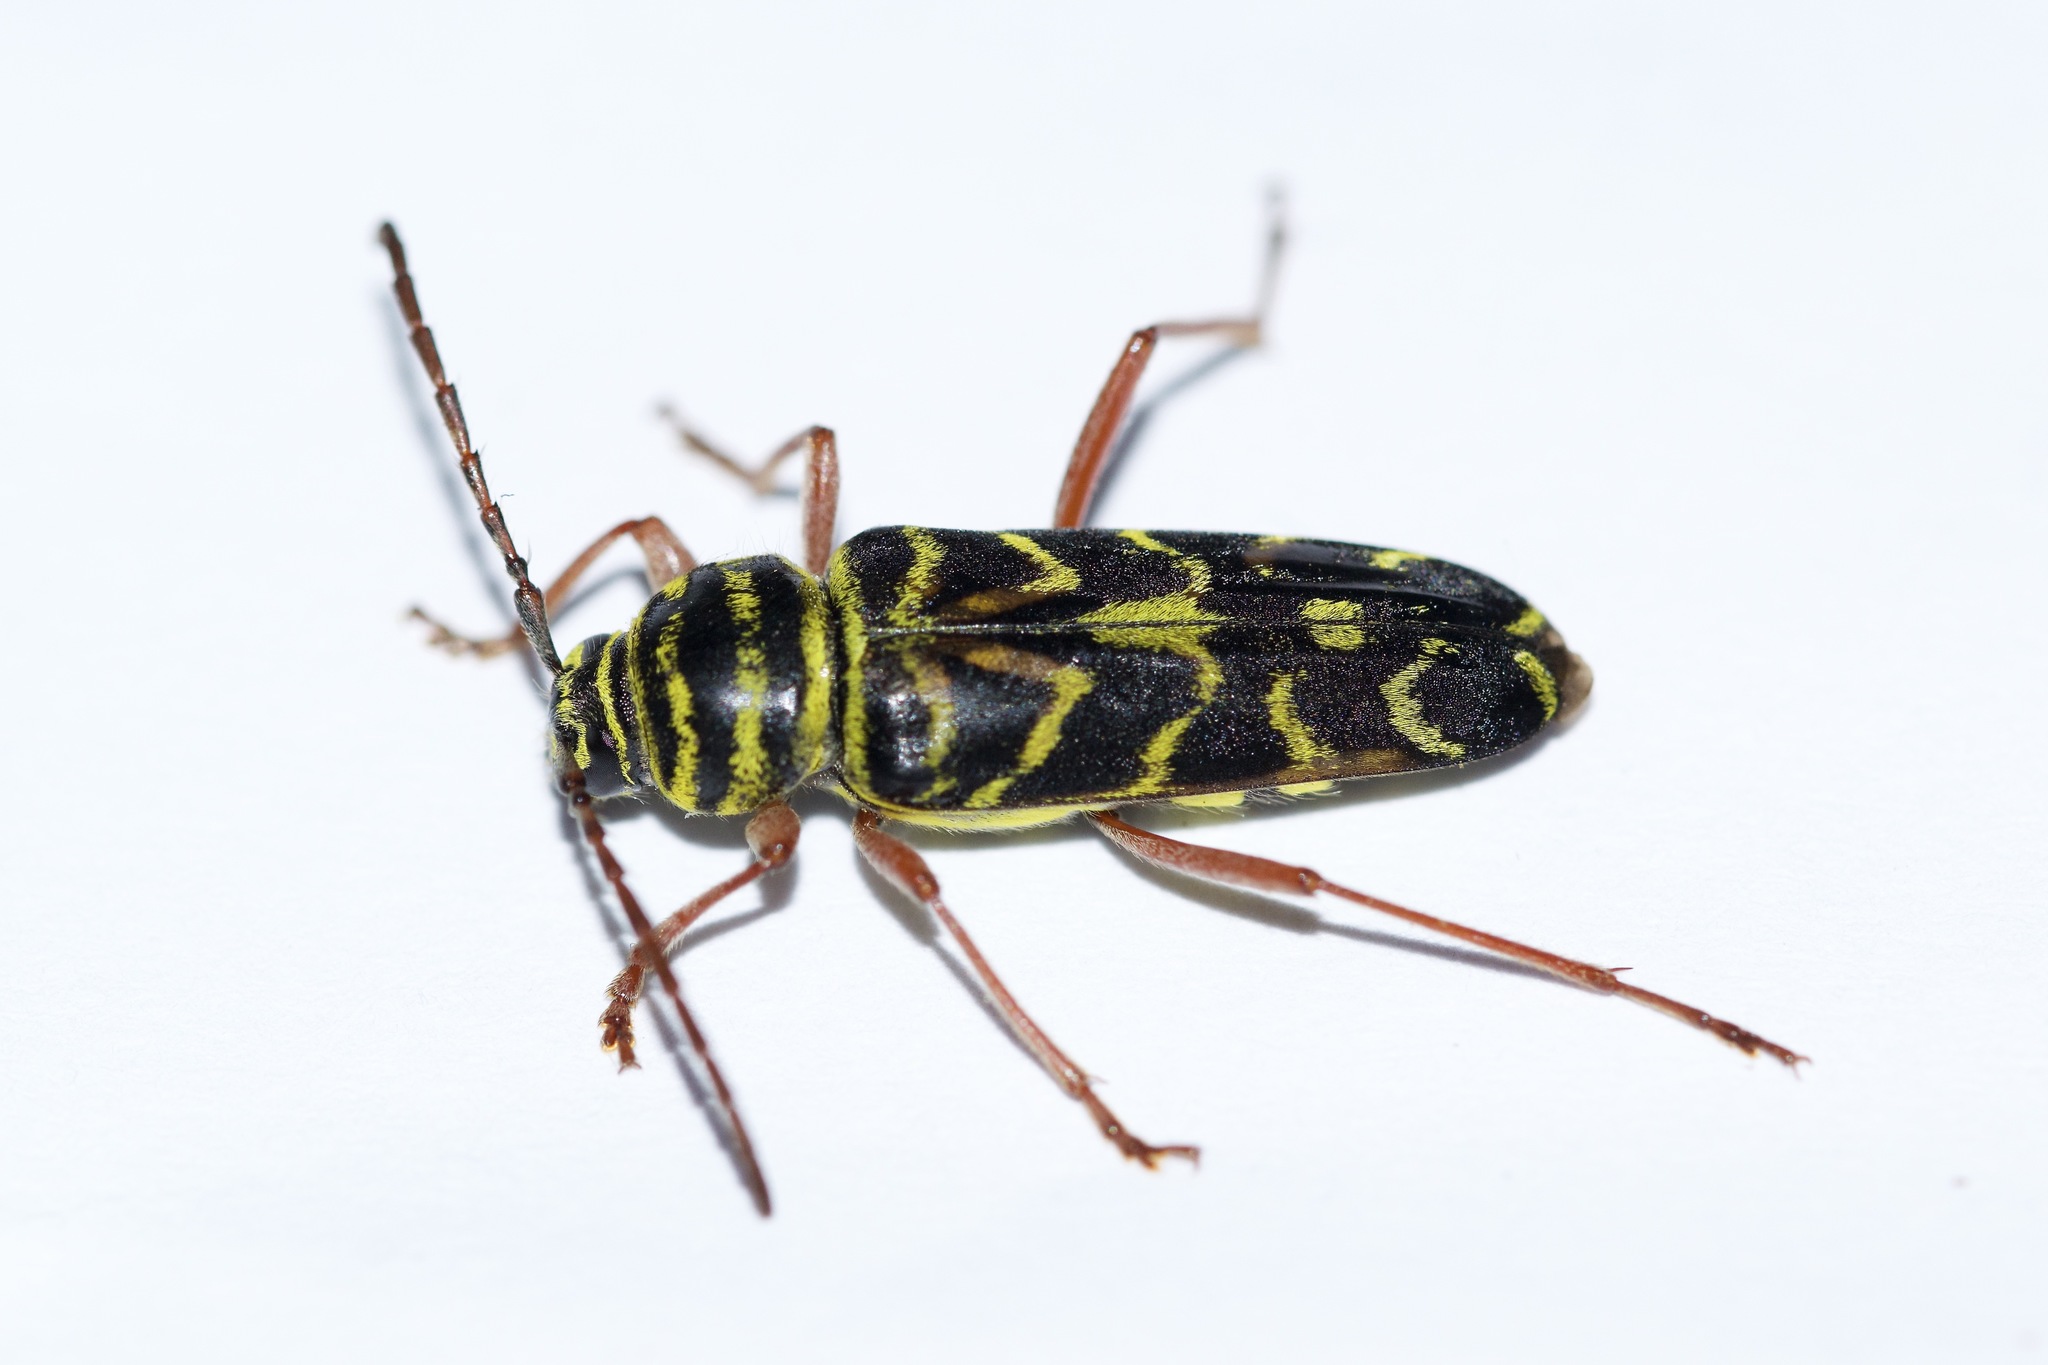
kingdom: Animalia
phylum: Arthropoda
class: Insecta
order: Coleoptera
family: Cerambycidae
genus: Megacyllene
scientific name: Megacyllene robiniae
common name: Locust borer
